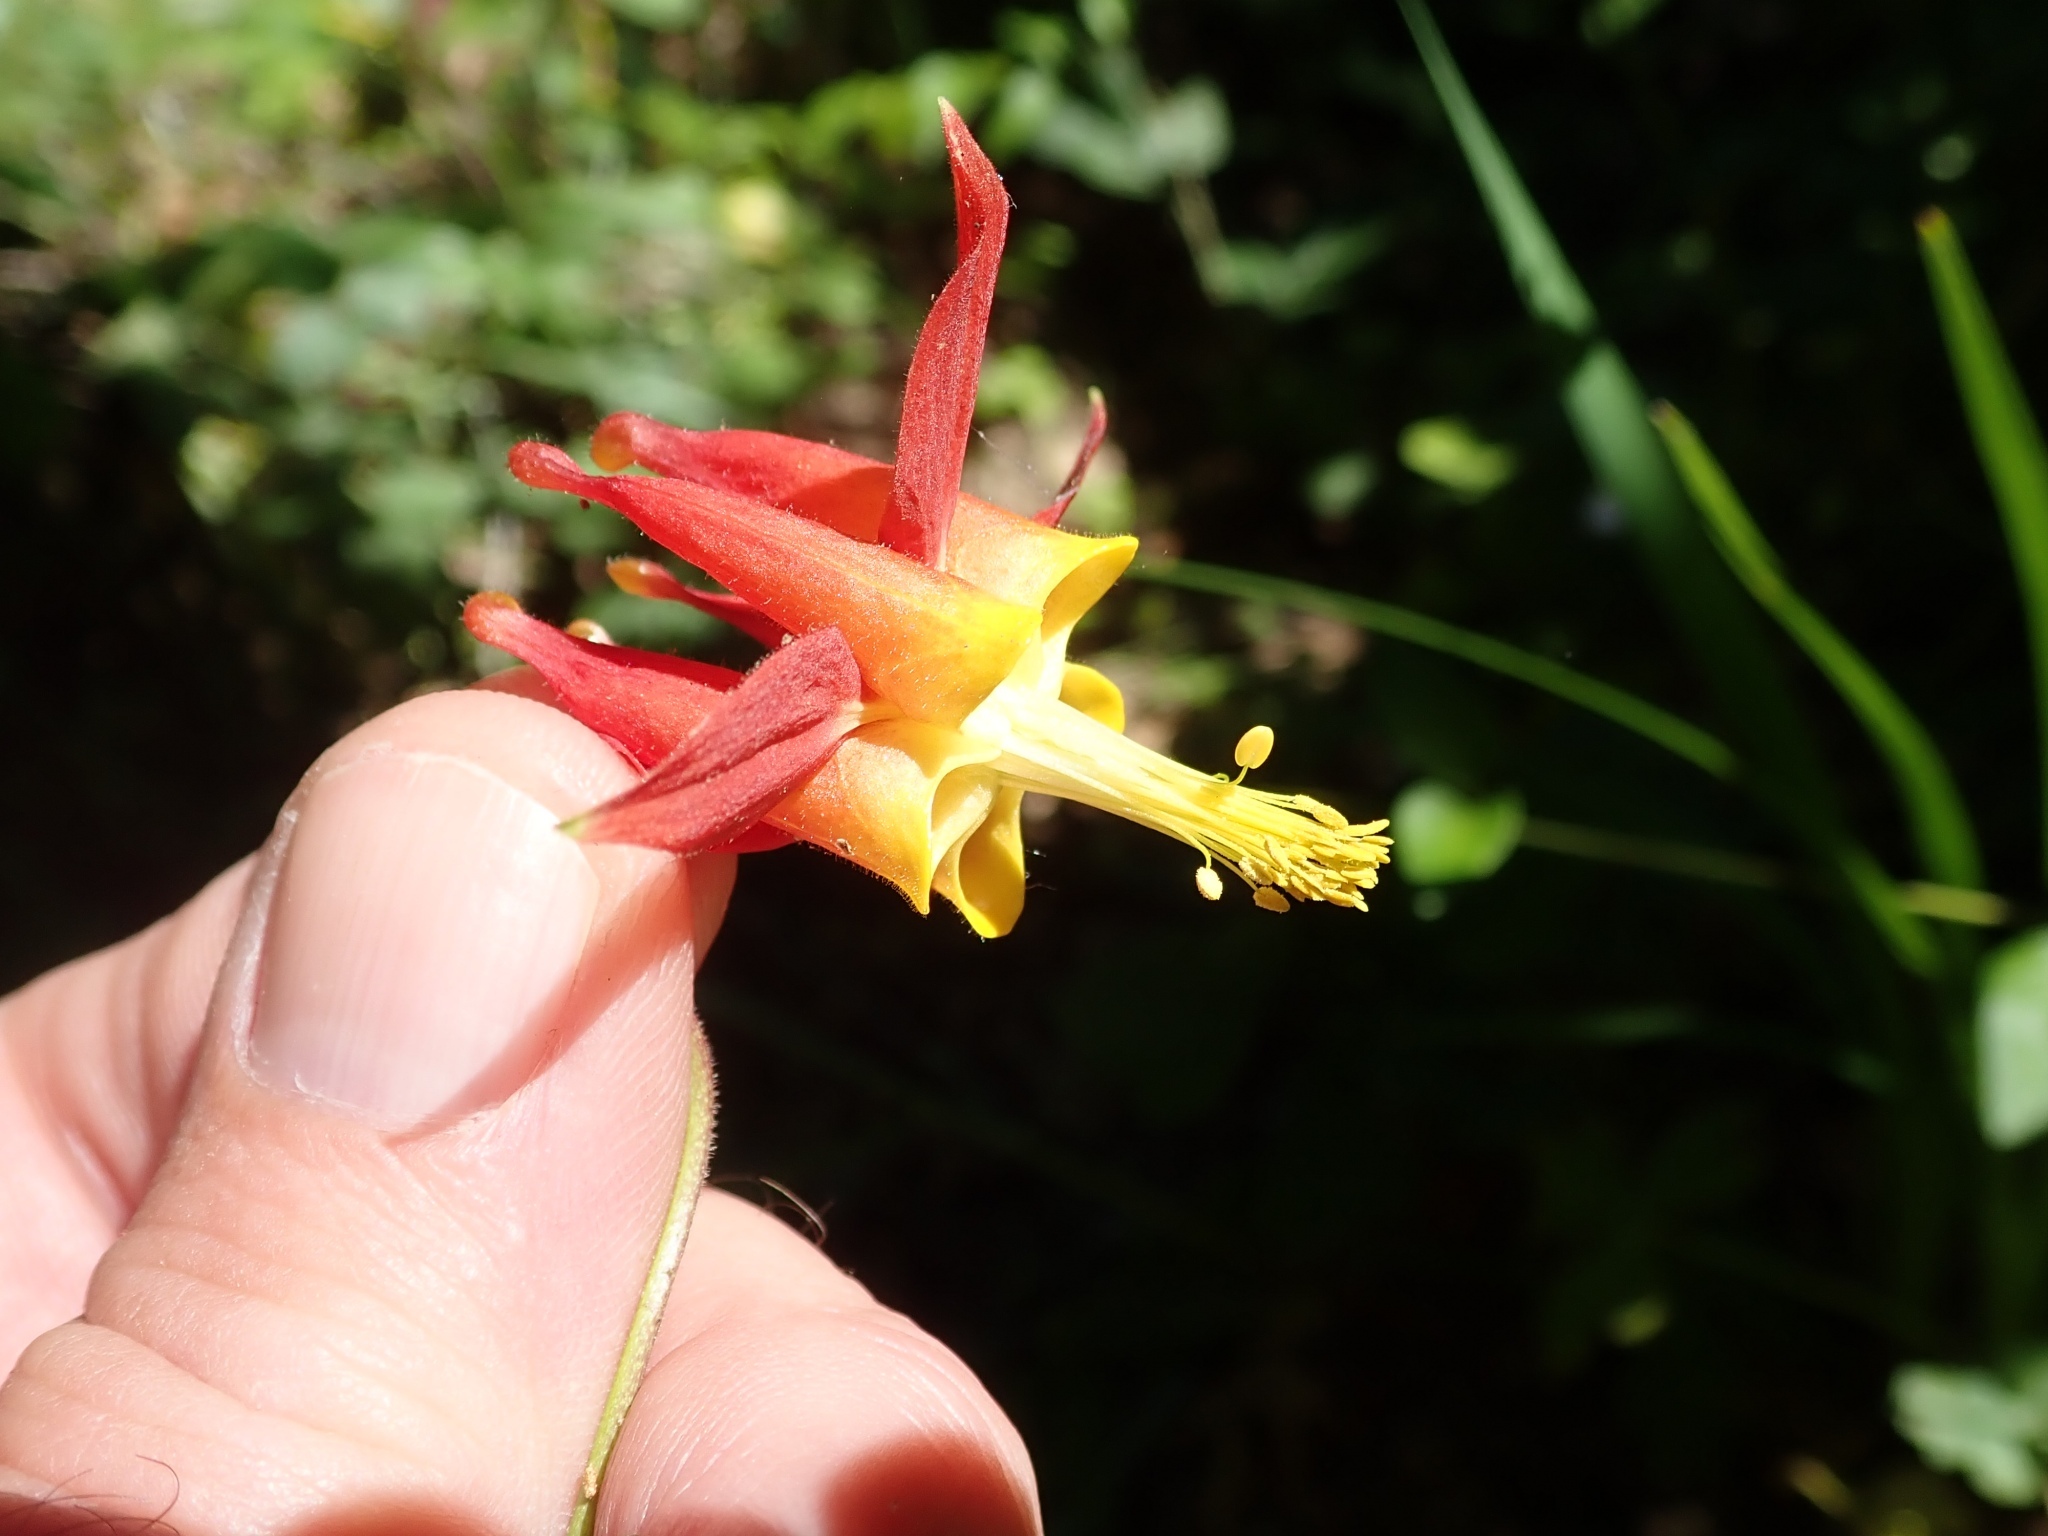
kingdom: Plantae
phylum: Tracheophyta
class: Magnoliopsida
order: Ranunculales
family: Ranunculaceae
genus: Aquilegia
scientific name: Aquilegia formosa
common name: Sitka columbine
